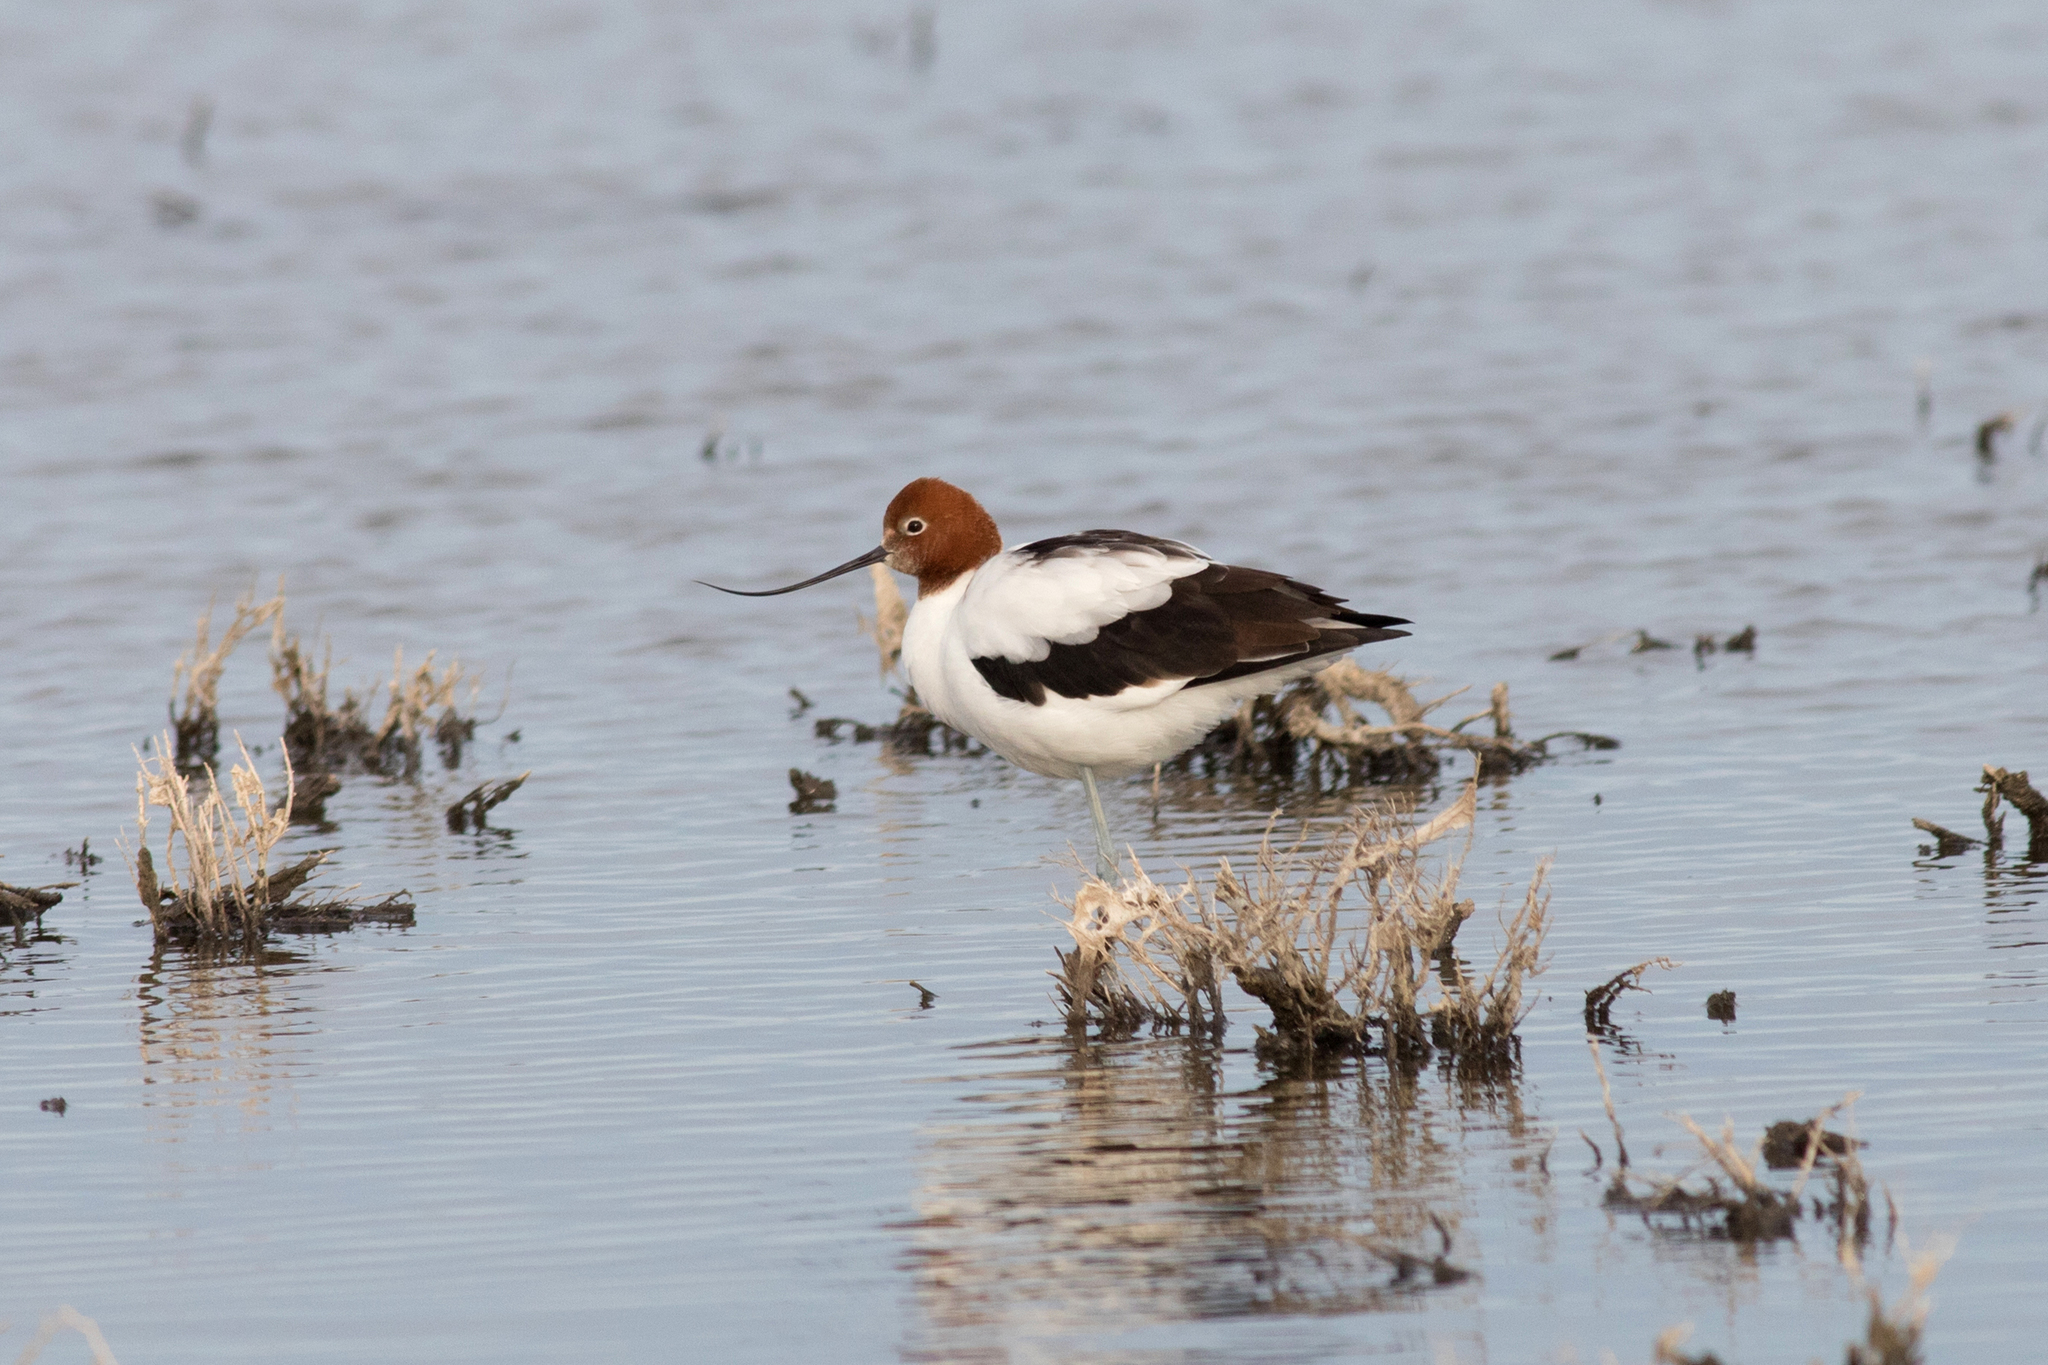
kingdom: Animalia
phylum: Chordata
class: Aves
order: Charadriiformes
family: Recurvirostridae
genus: Recurvirostra
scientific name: Recurvirostra novaehollandiae
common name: Red-necked avocet
